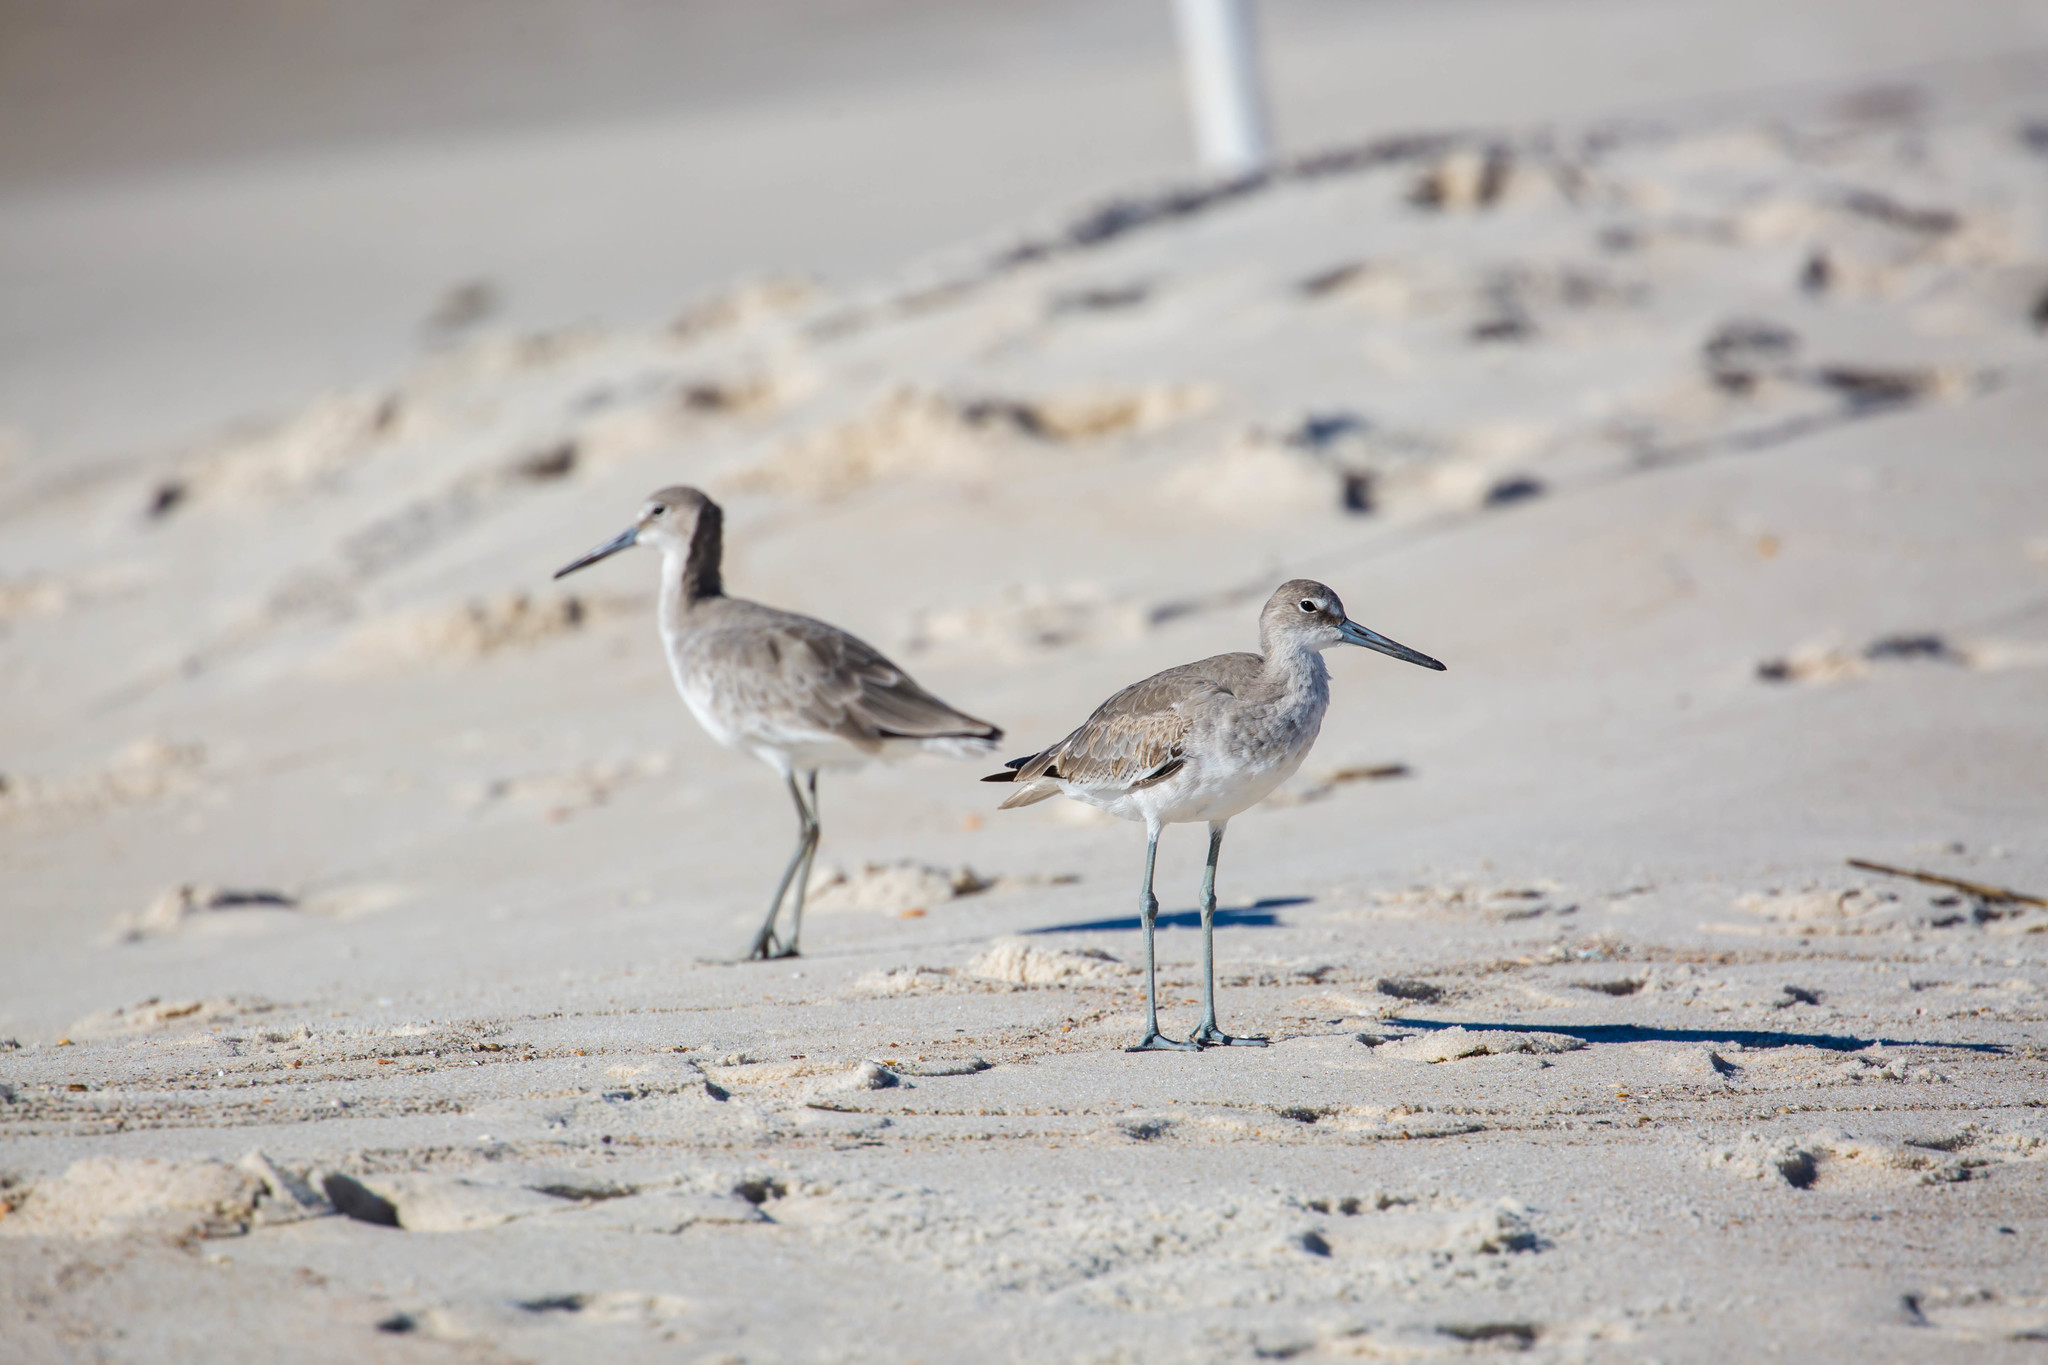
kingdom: Animalia
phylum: Chordata
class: Aves
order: Charadriiformes
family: Scolopacidae
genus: Tringa
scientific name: Tringa semipalmata
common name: Willet
